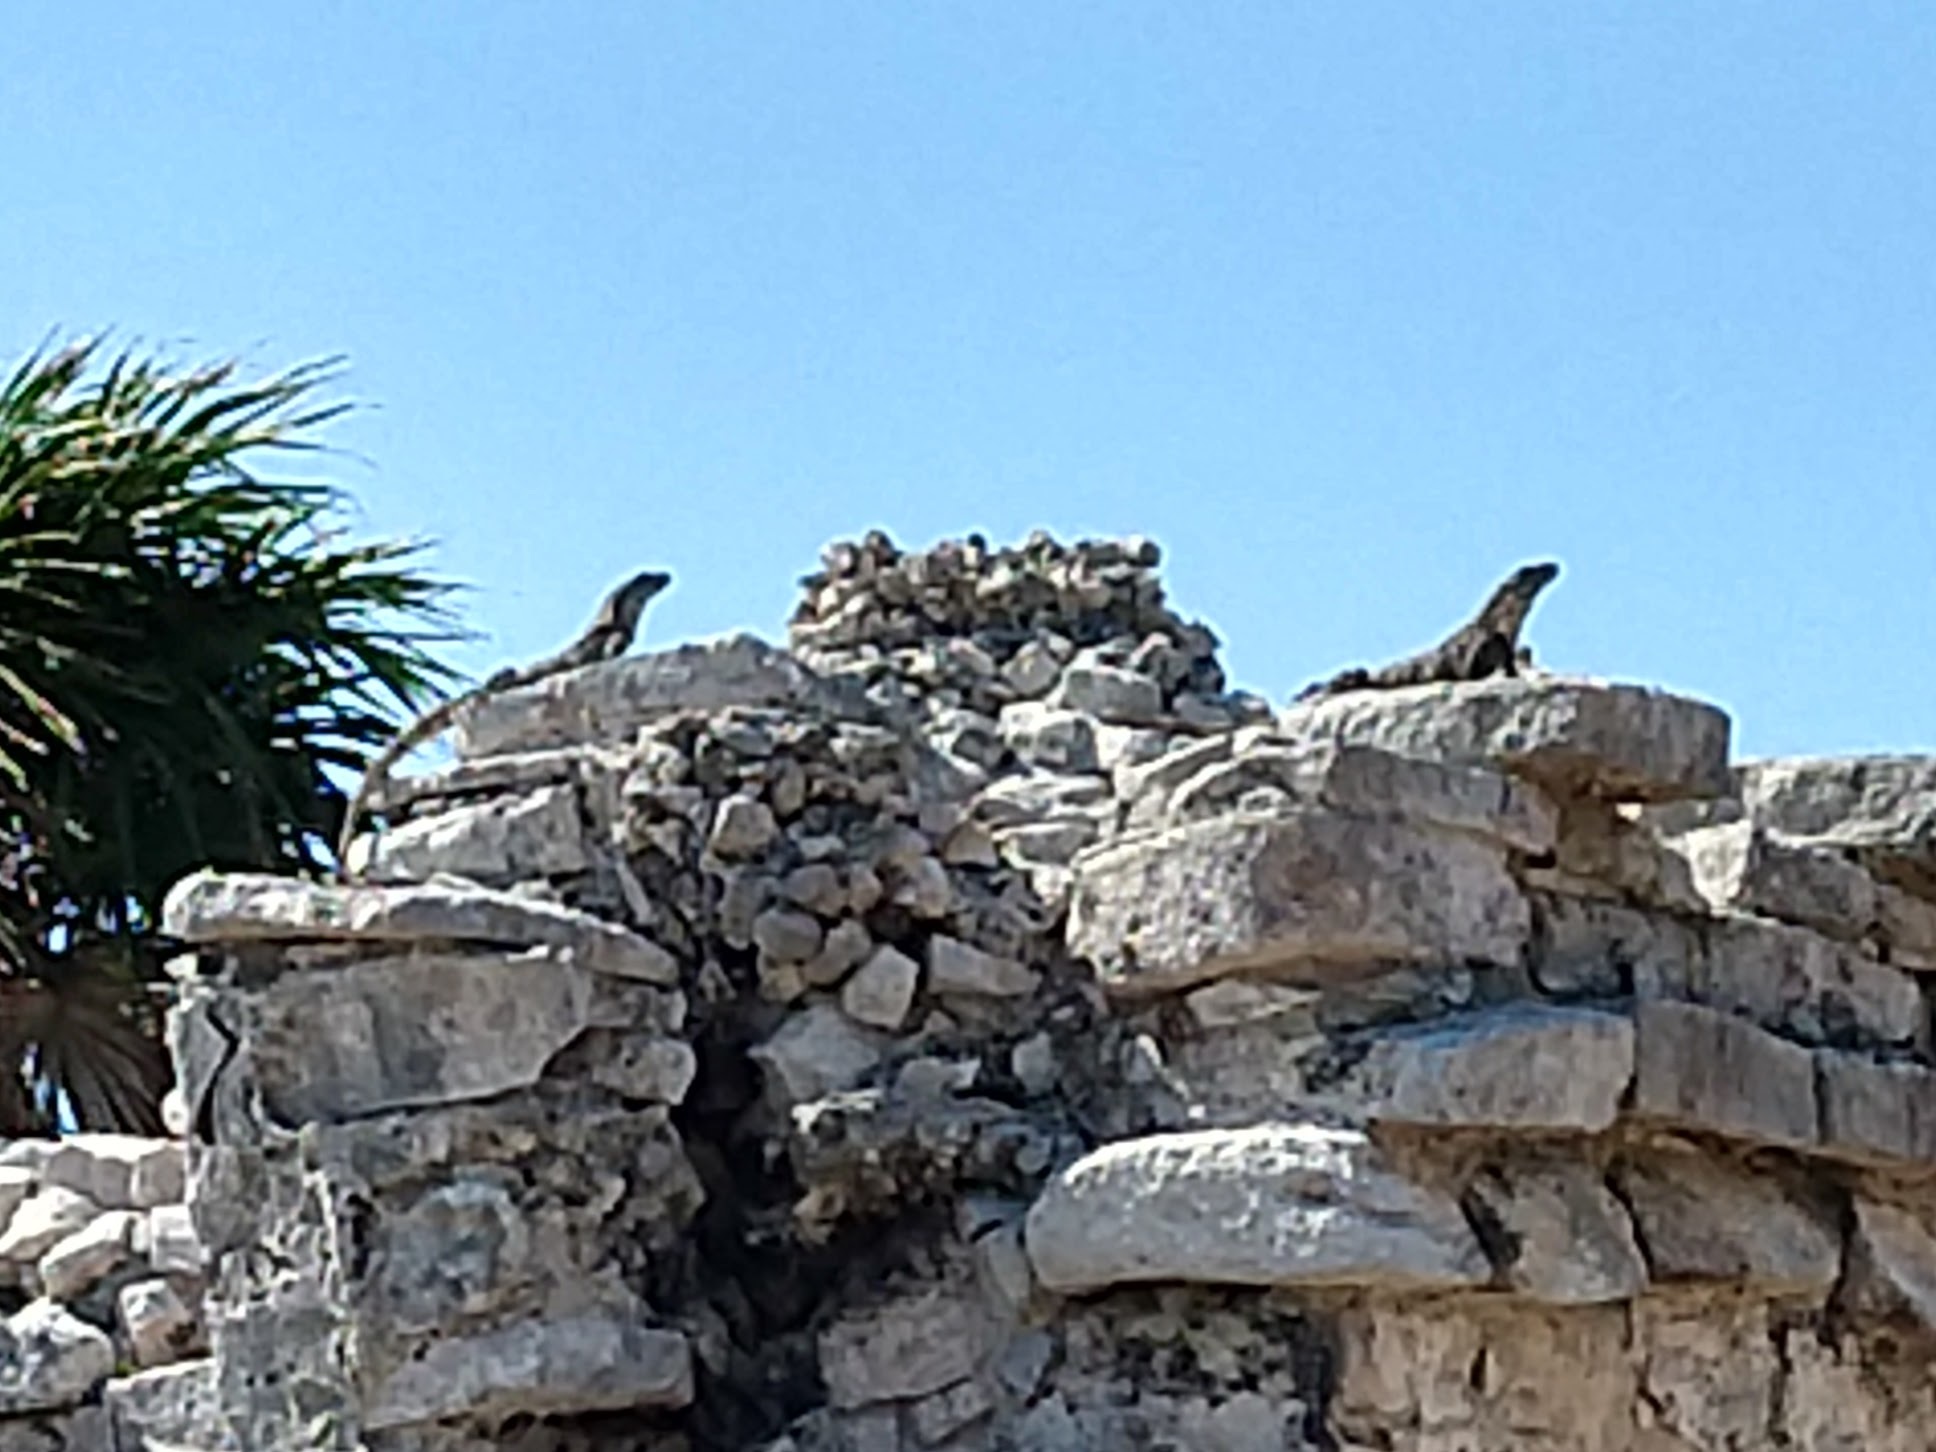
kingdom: Animalia
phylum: Chordata
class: Squamata
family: Iguanidae
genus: Ctenosaura
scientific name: Ctenosaura similis
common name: Black spiny-tailed iguana
